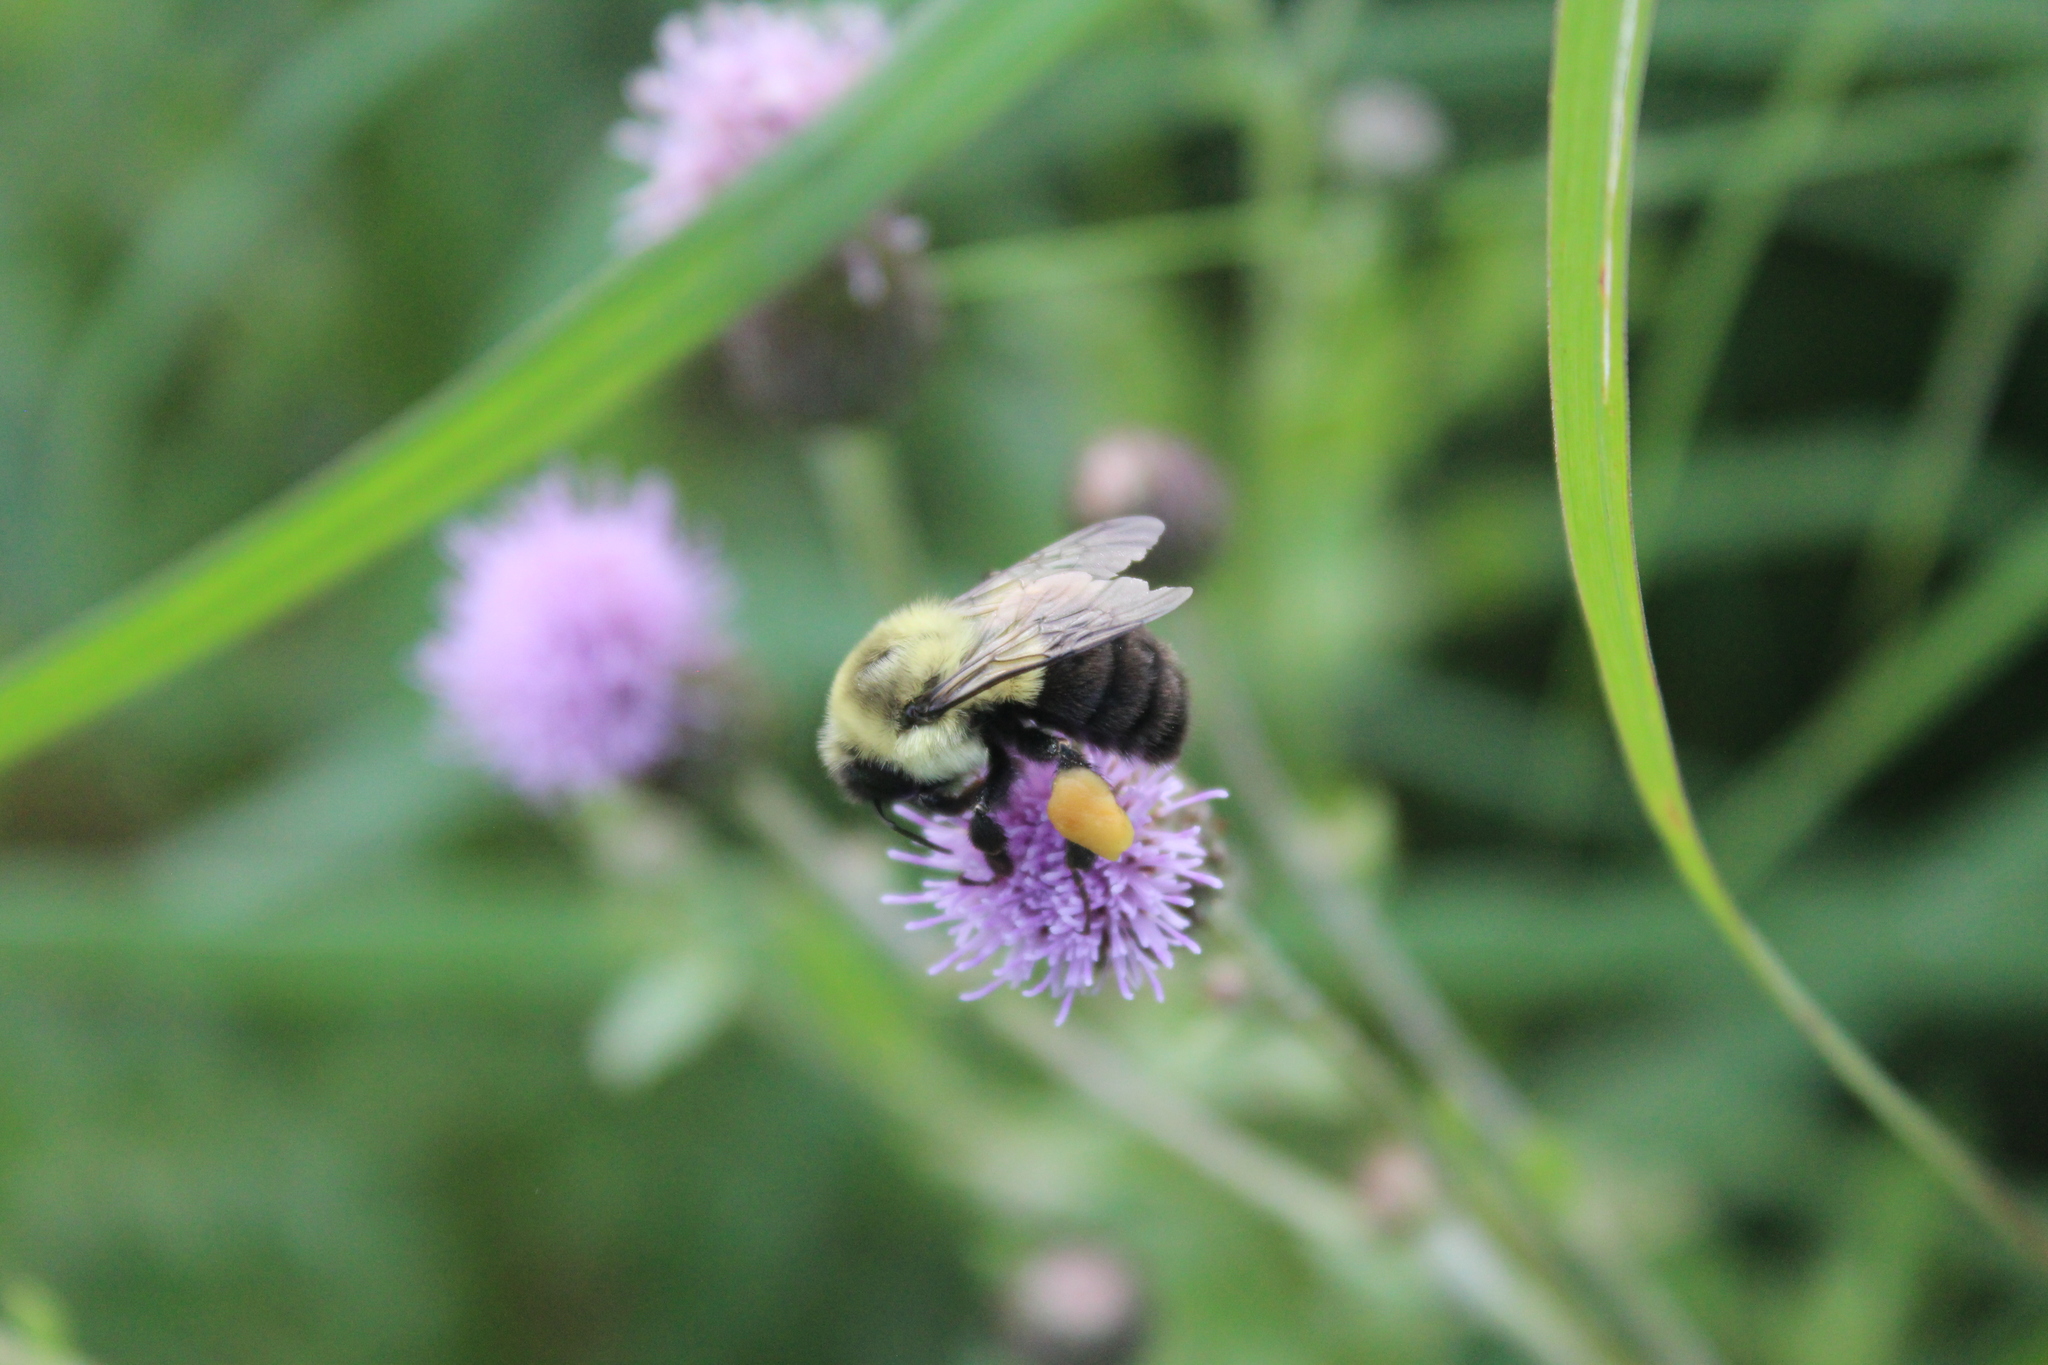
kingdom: Animalia
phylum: Arthropoda
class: Insecta
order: Hymenoptera
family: Apidae
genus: Bombus
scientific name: Bombus impatiens
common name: Common eastern bumble bee
